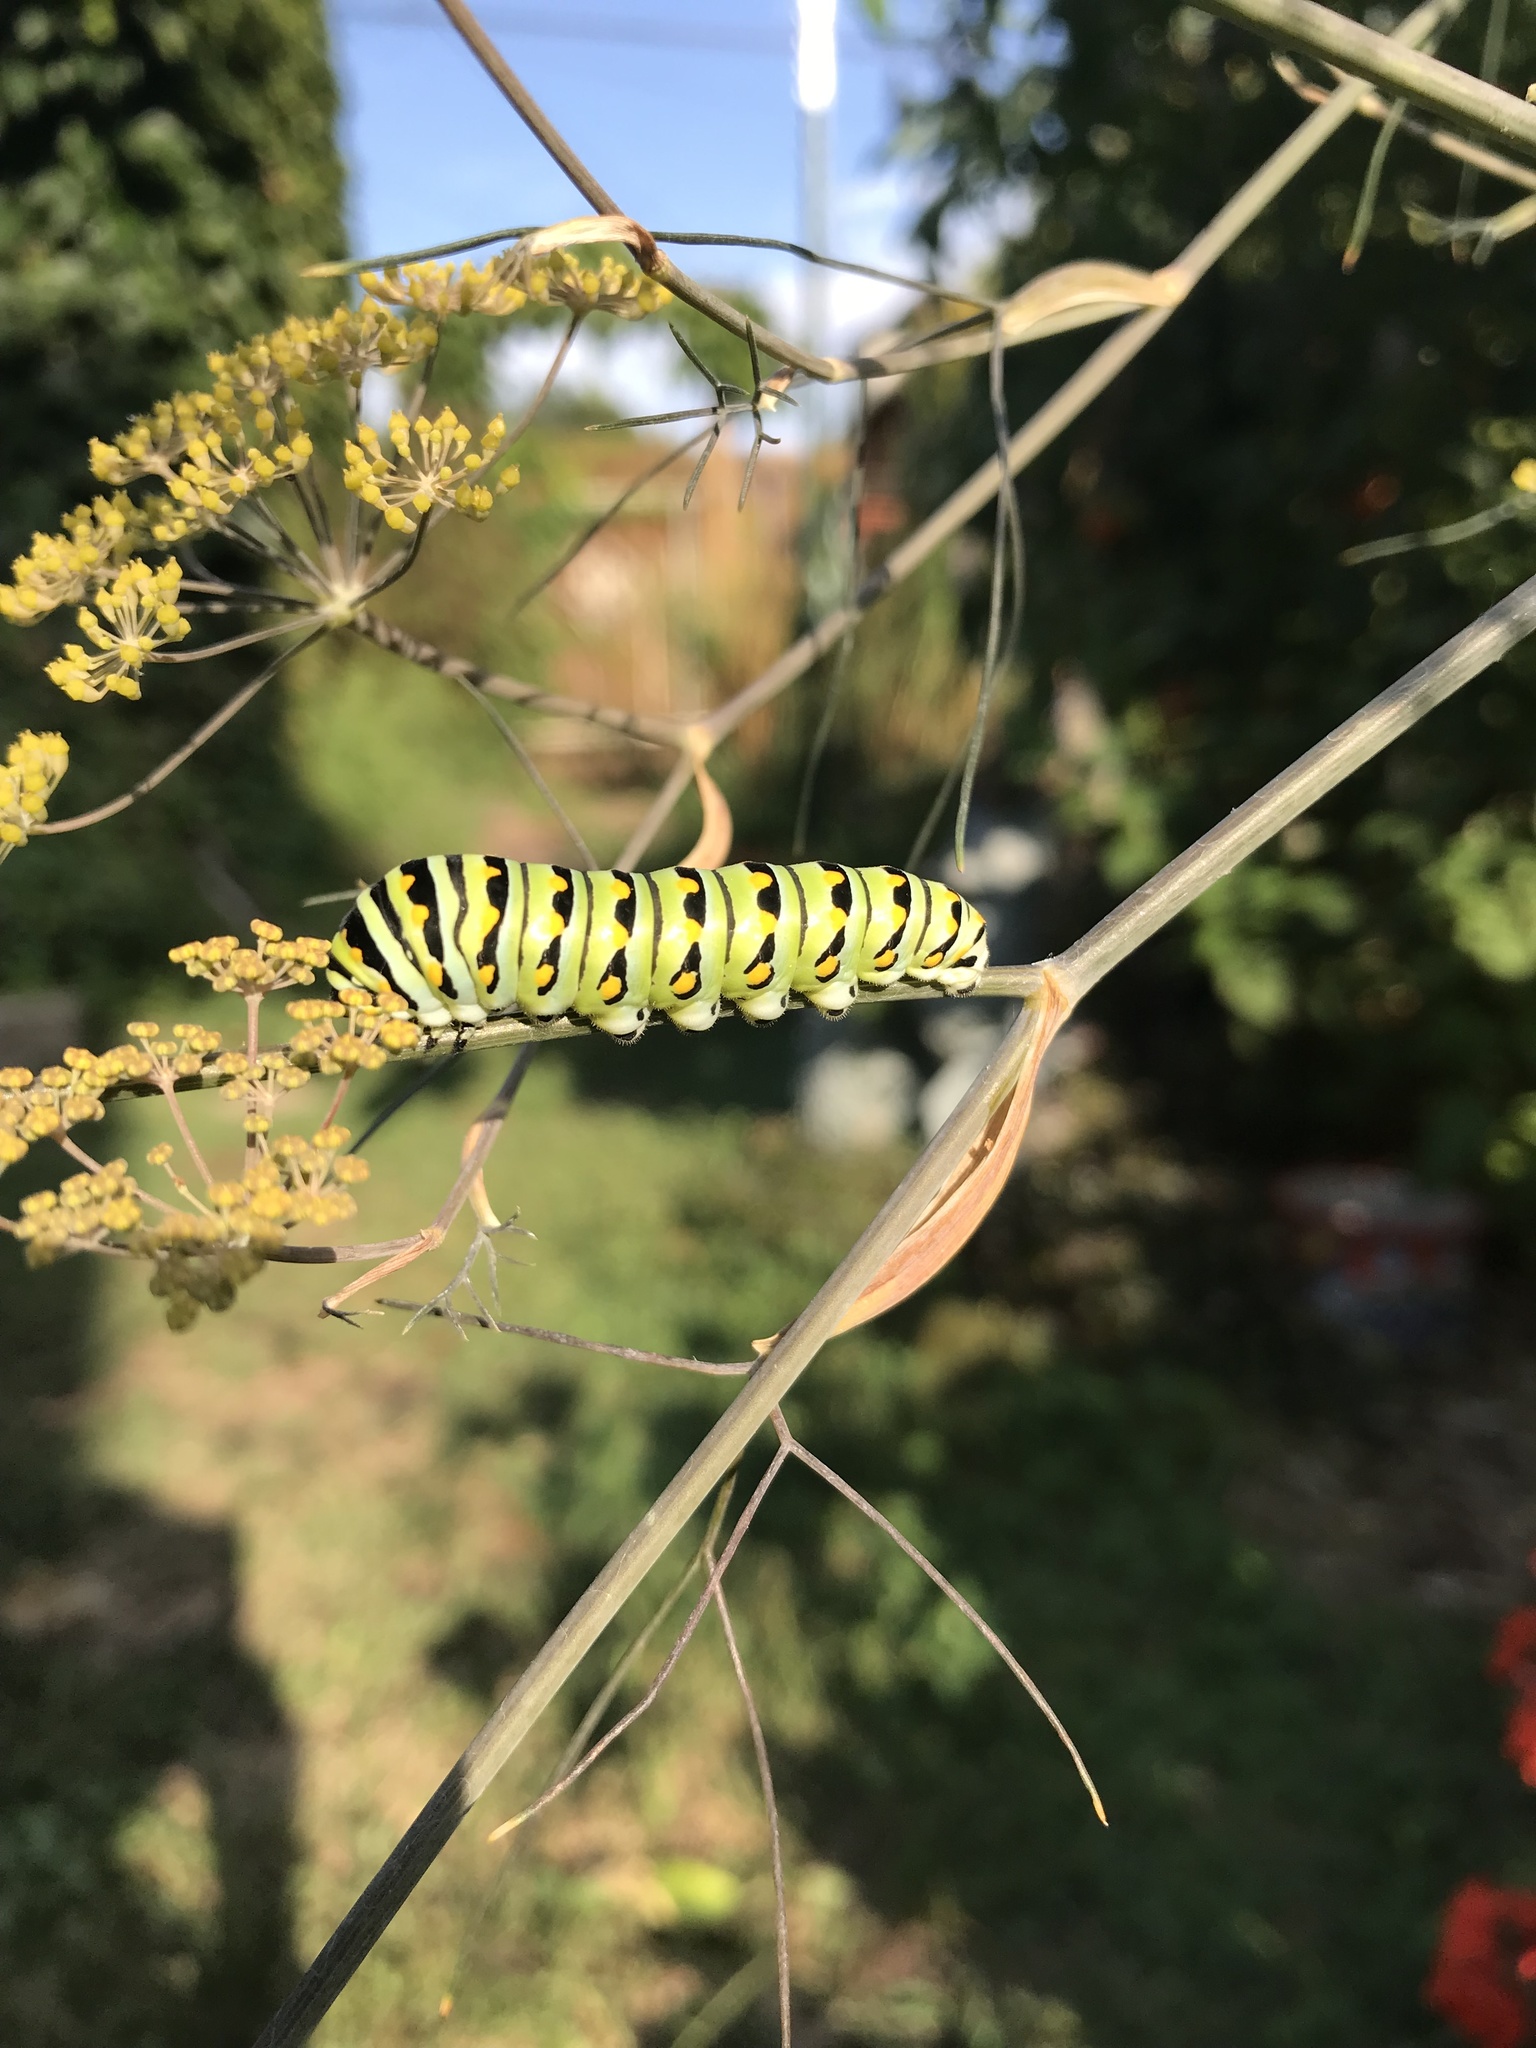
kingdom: Animalia
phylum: Arthropoda
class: Insecta
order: Lepidoptera
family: Papilionidae
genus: Papilio
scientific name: Papilio polyxenes
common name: Black swallowtail
